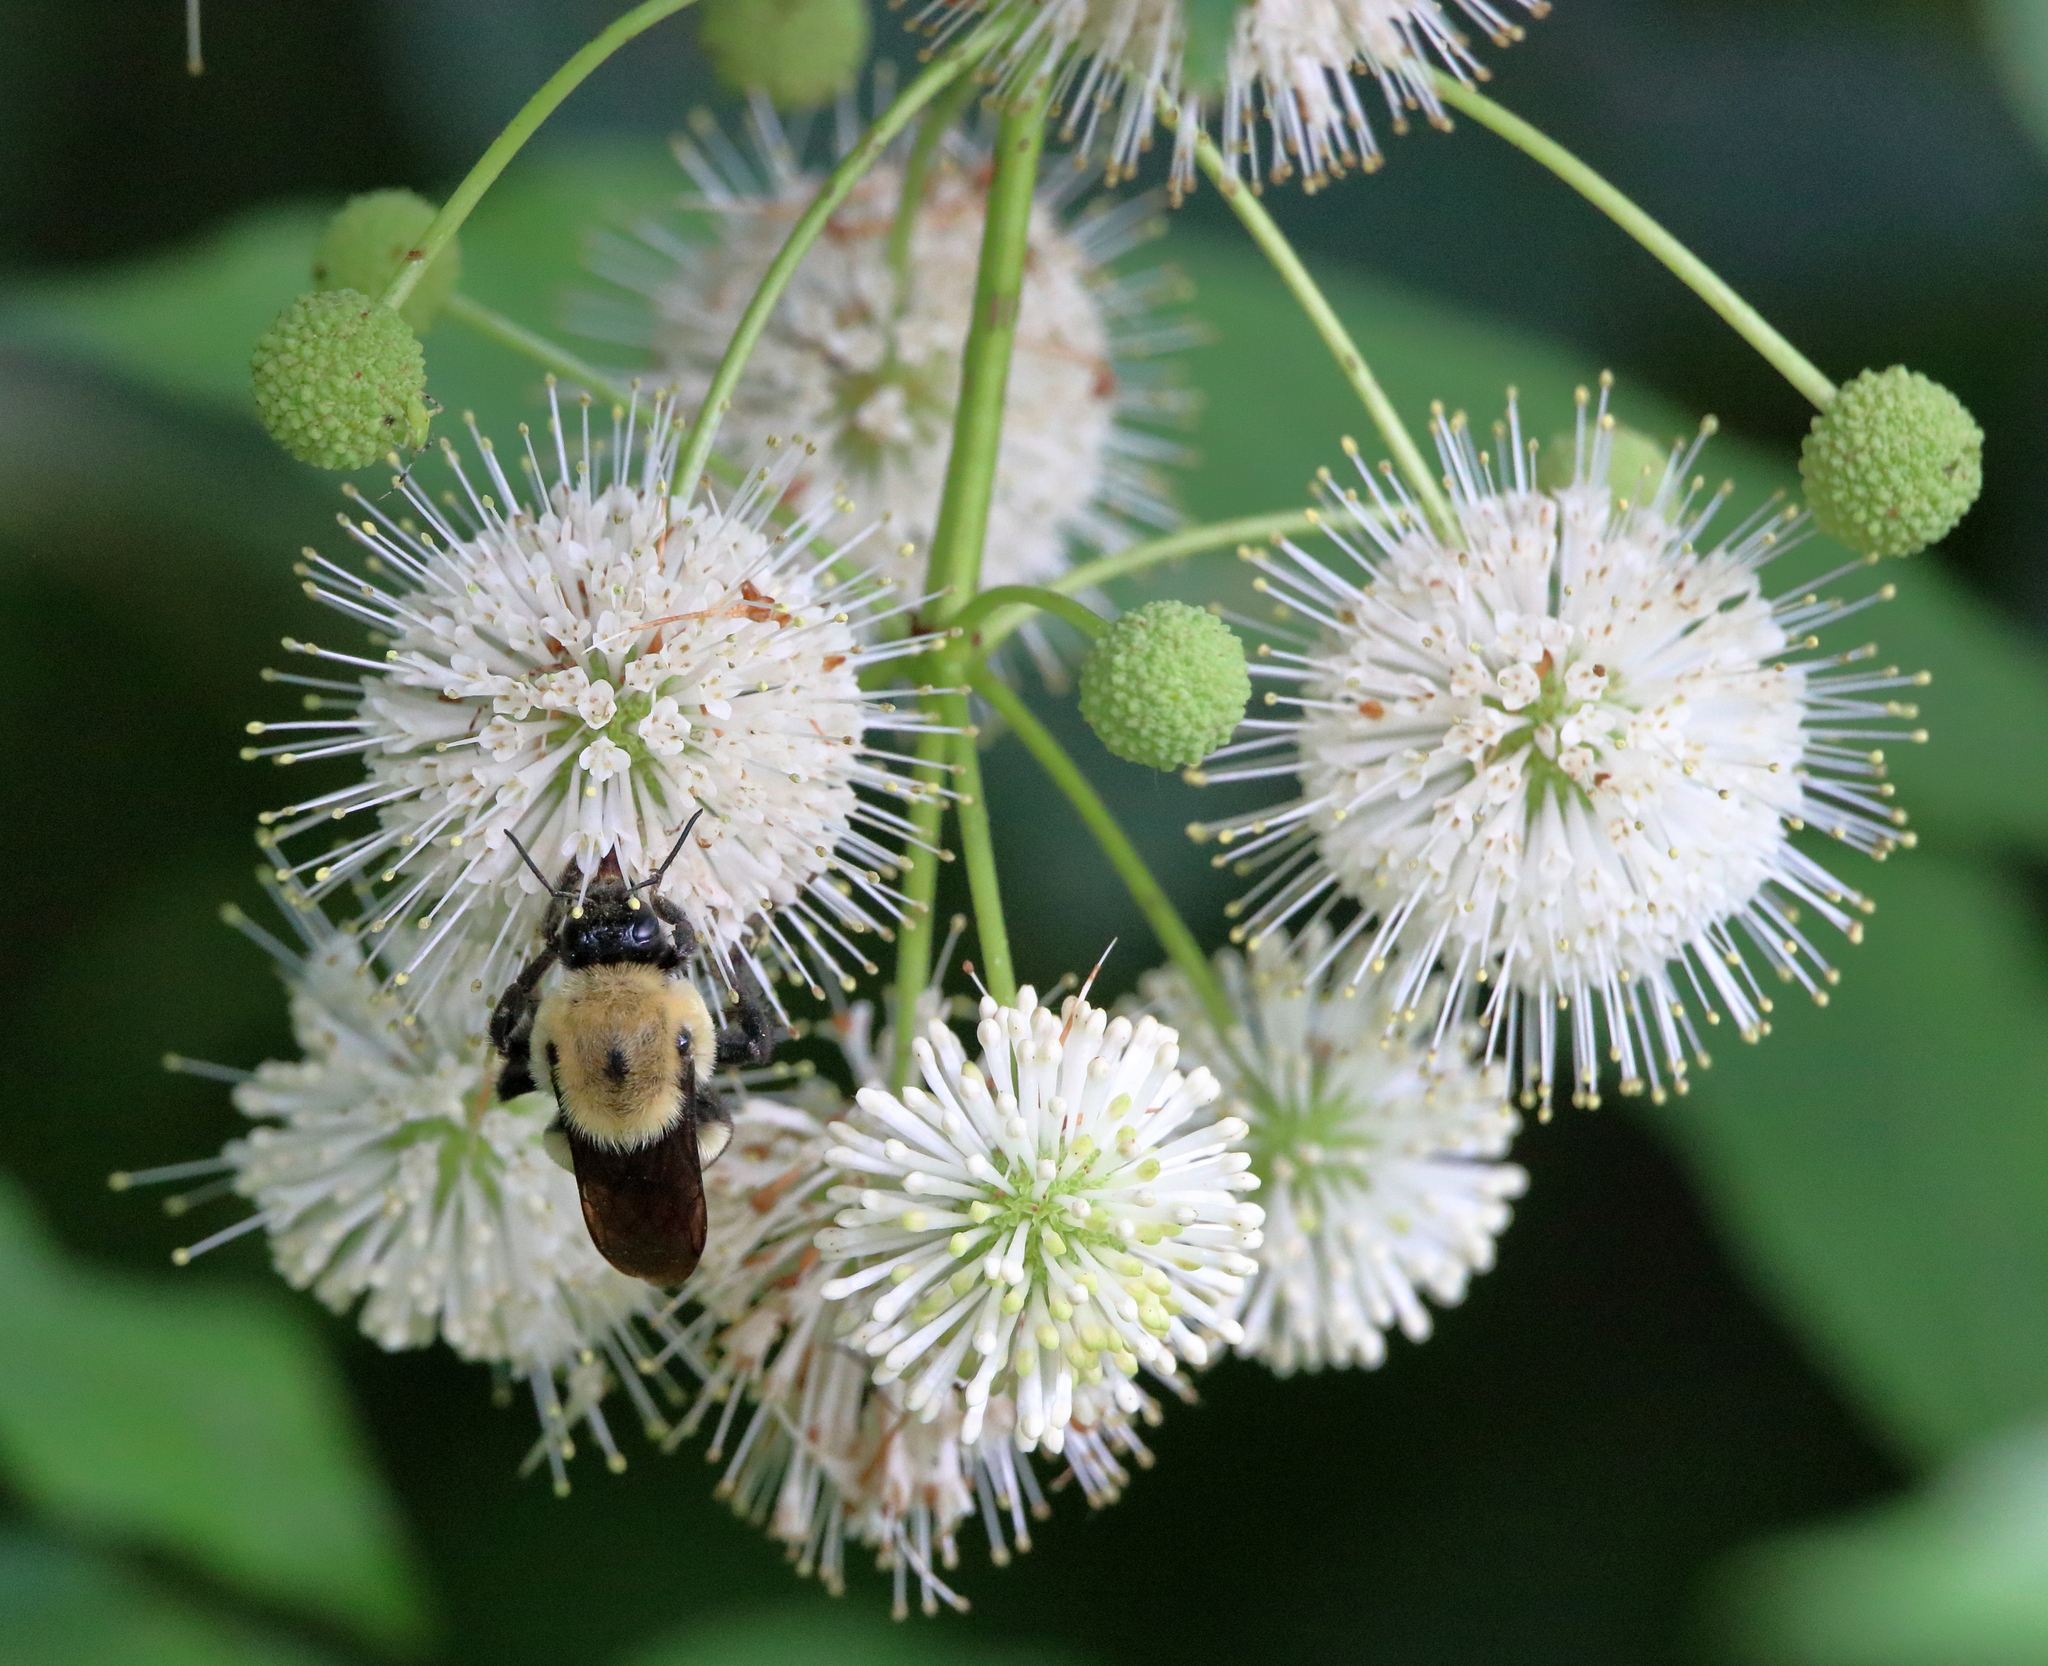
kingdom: Animalia
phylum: Arthropoda
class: Insecta
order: Hymenoptera
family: Apidae
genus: Bombus
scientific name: Bombus griseocollis
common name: Brown-belted bumble bee
